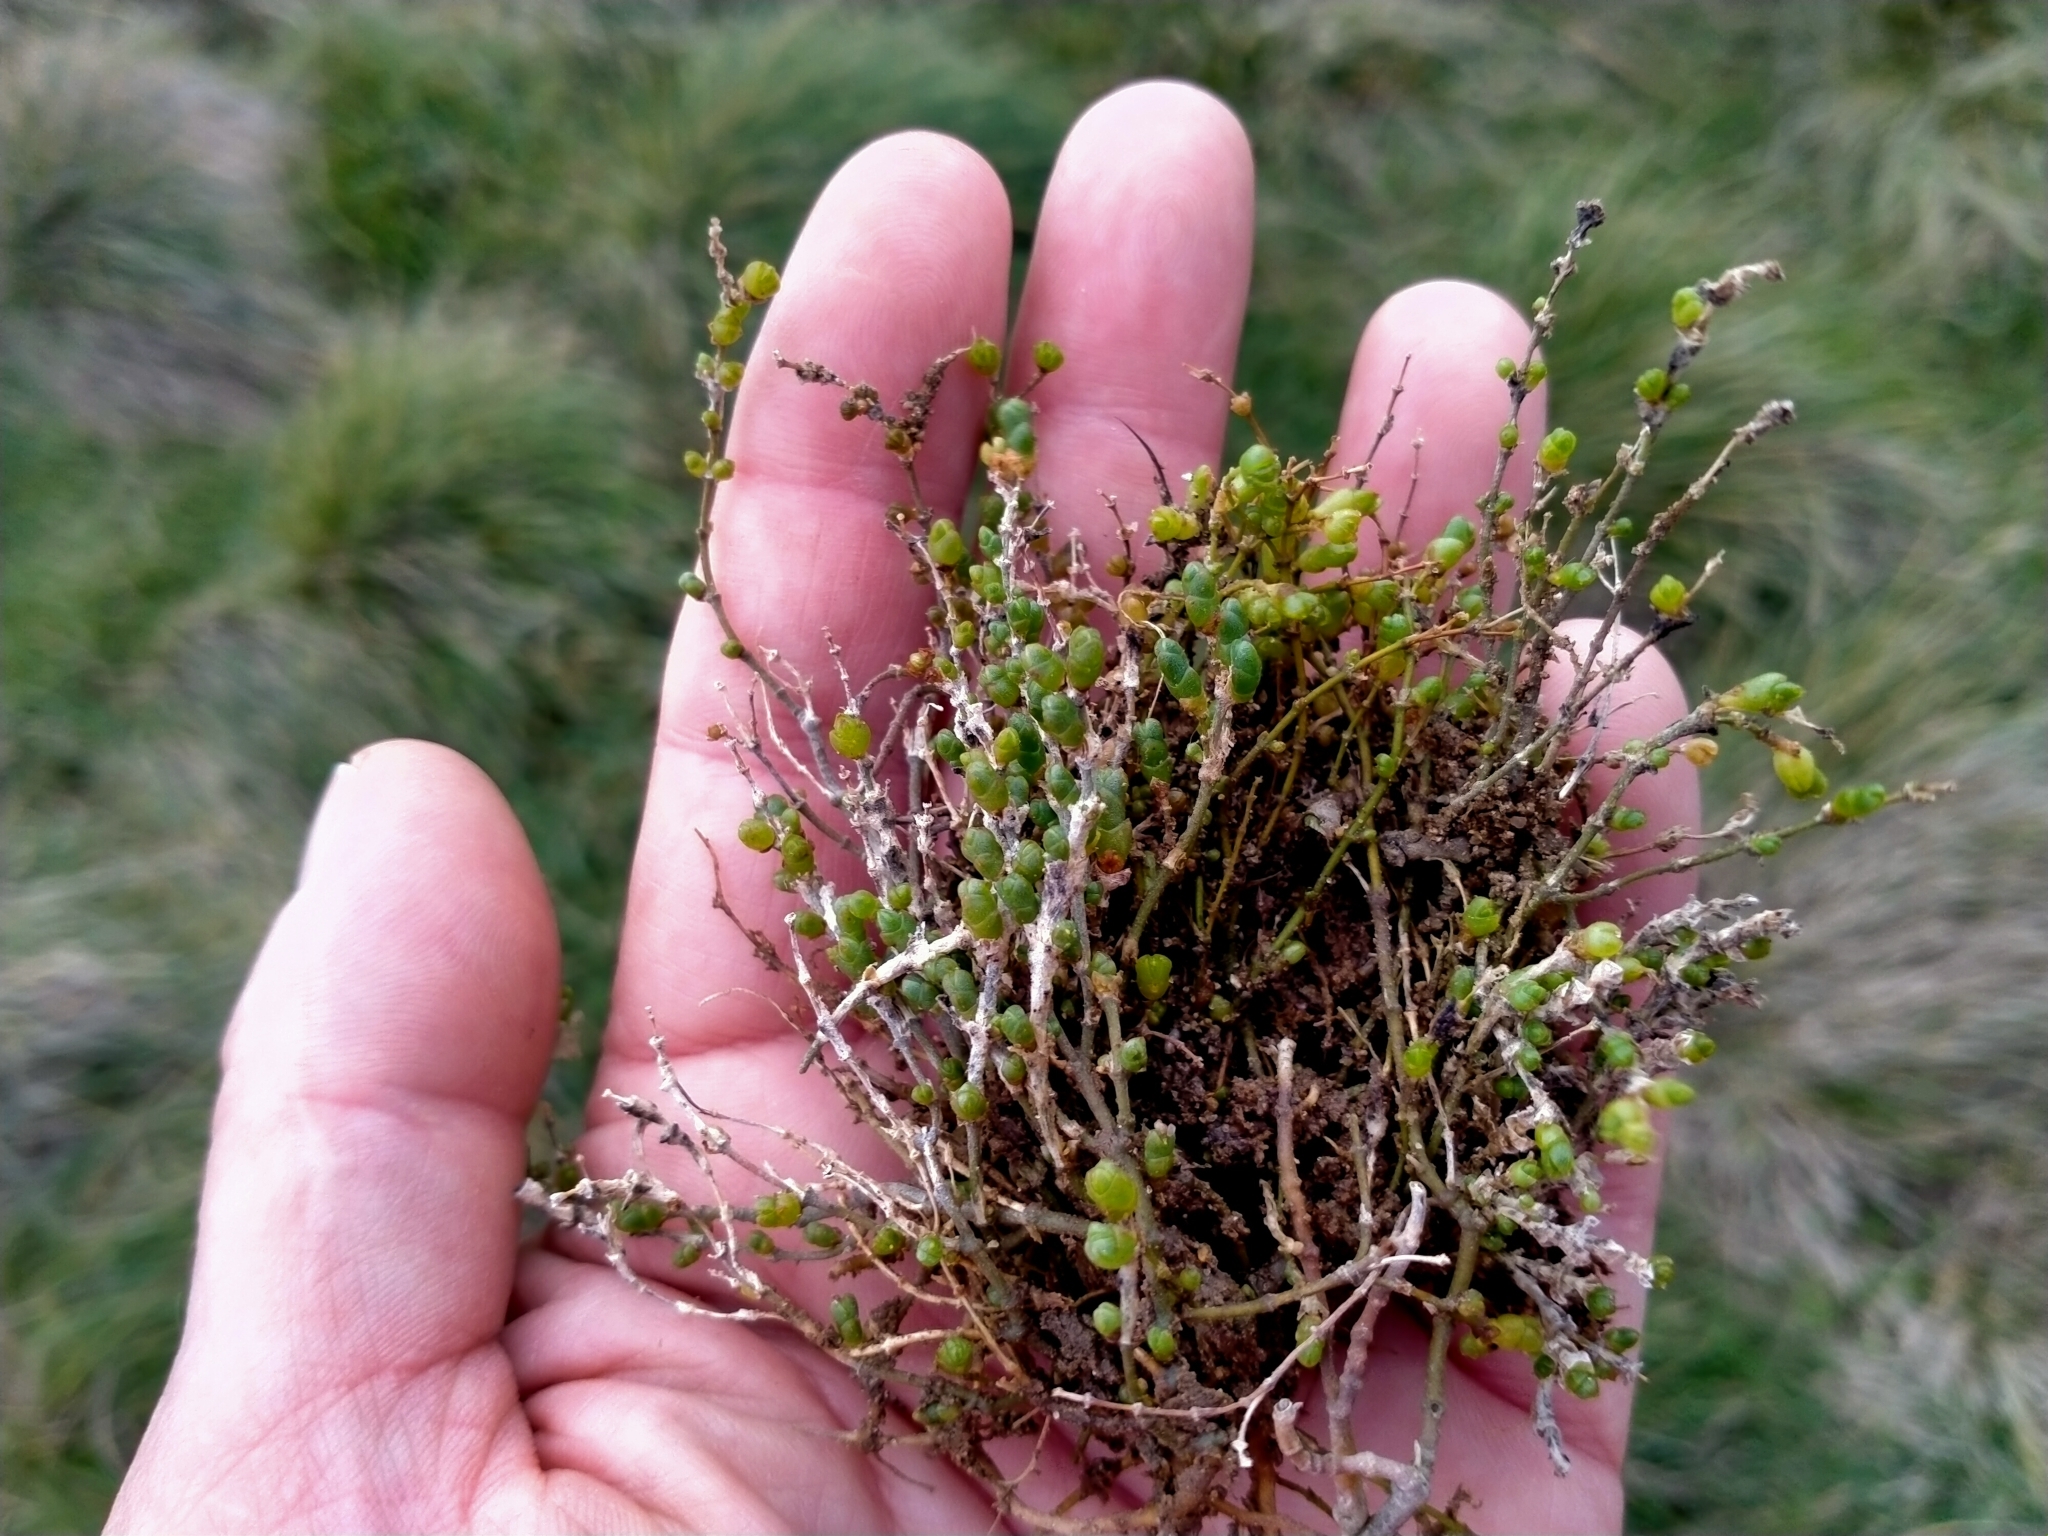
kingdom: Plantae
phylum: Tracheophyta
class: Magnoliopsida
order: Caryophyllales
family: Amaranthaceae
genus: Salicornia
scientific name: Salicornia quinqueflora
